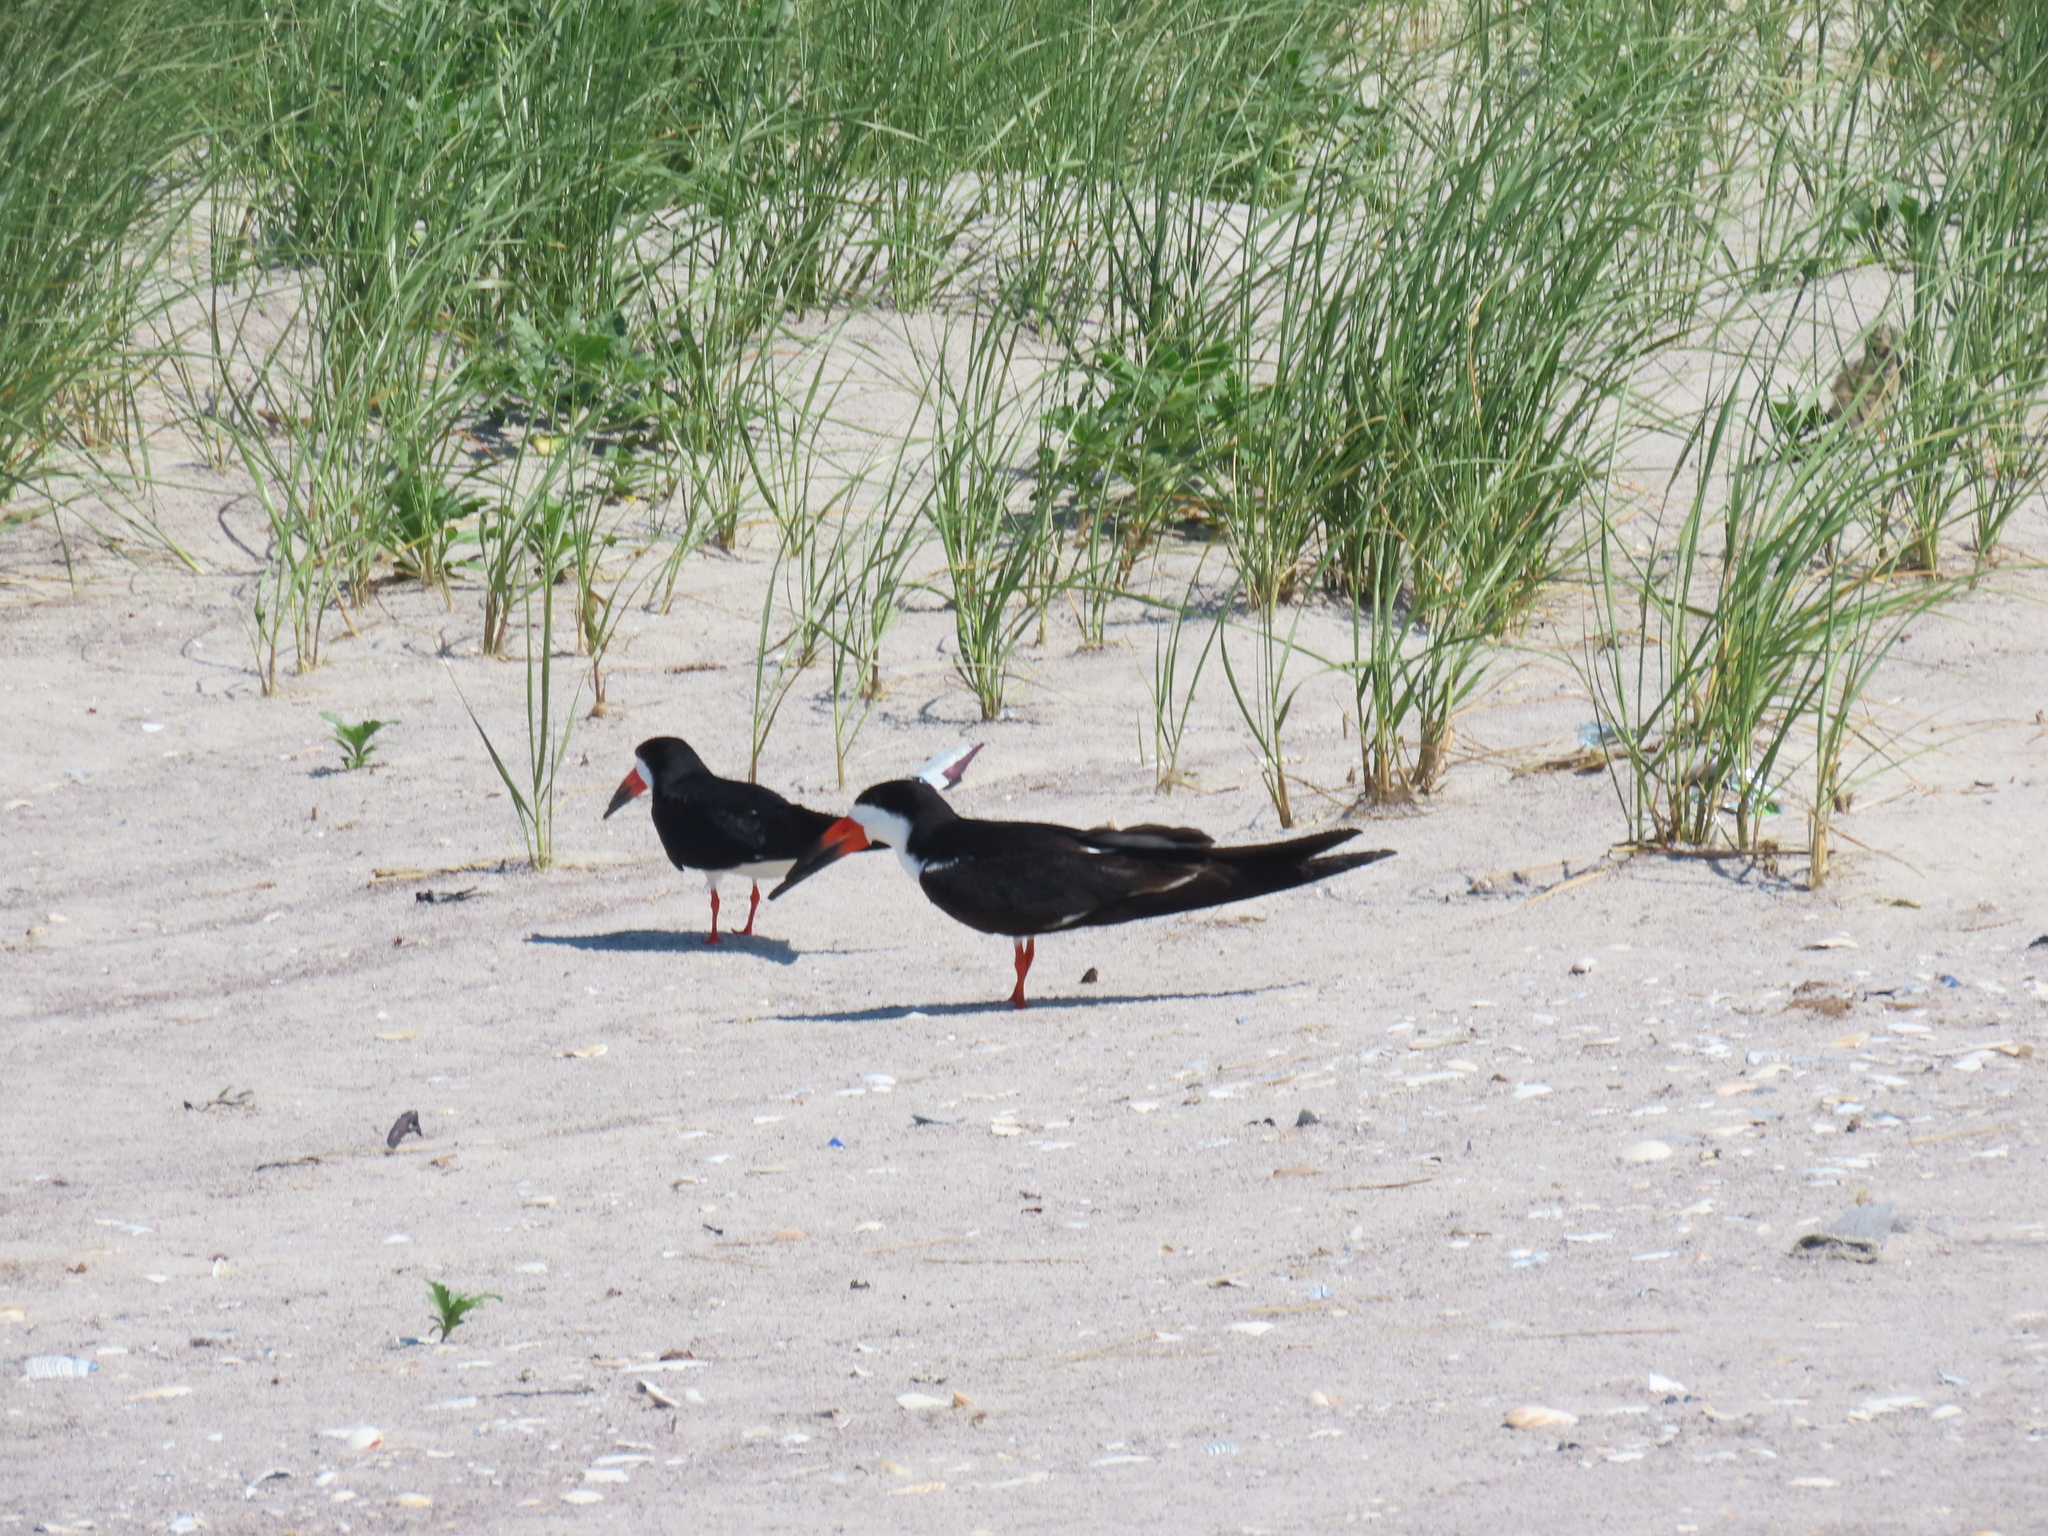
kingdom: Animalia
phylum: Chordata
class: Aves
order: Charadriiformes
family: Laridae
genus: Rynchops
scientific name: Rynchops niger
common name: Black skimmer
